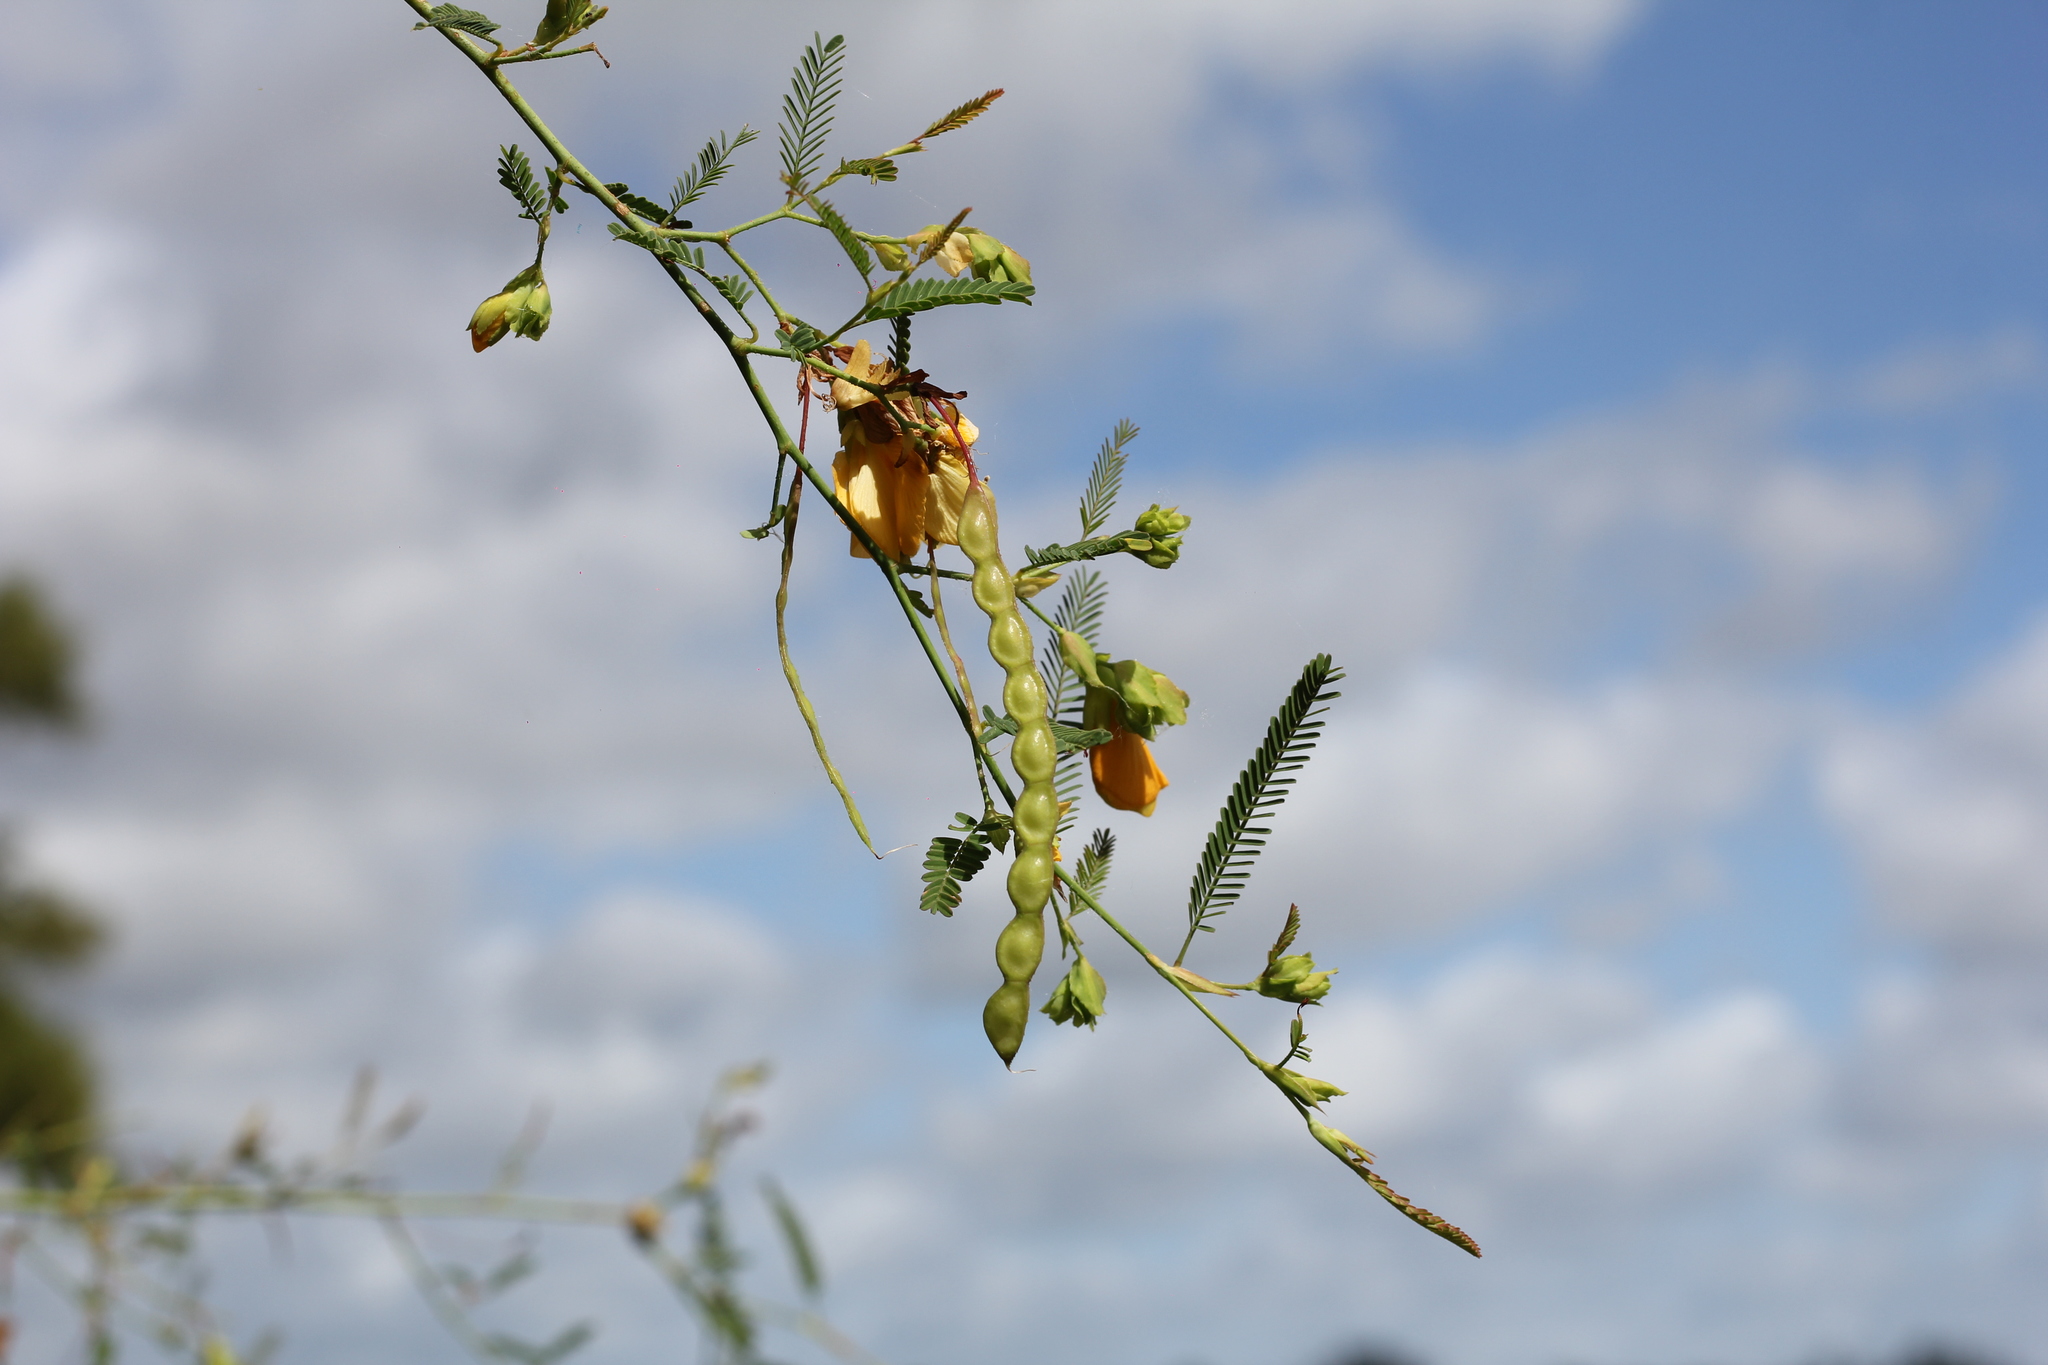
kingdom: Plantae
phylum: Tracheophyta
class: Magnoliopsida
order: Fabales
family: Fabaceae
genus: Aeschynomene
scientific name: Aeschynomene montevidensis
